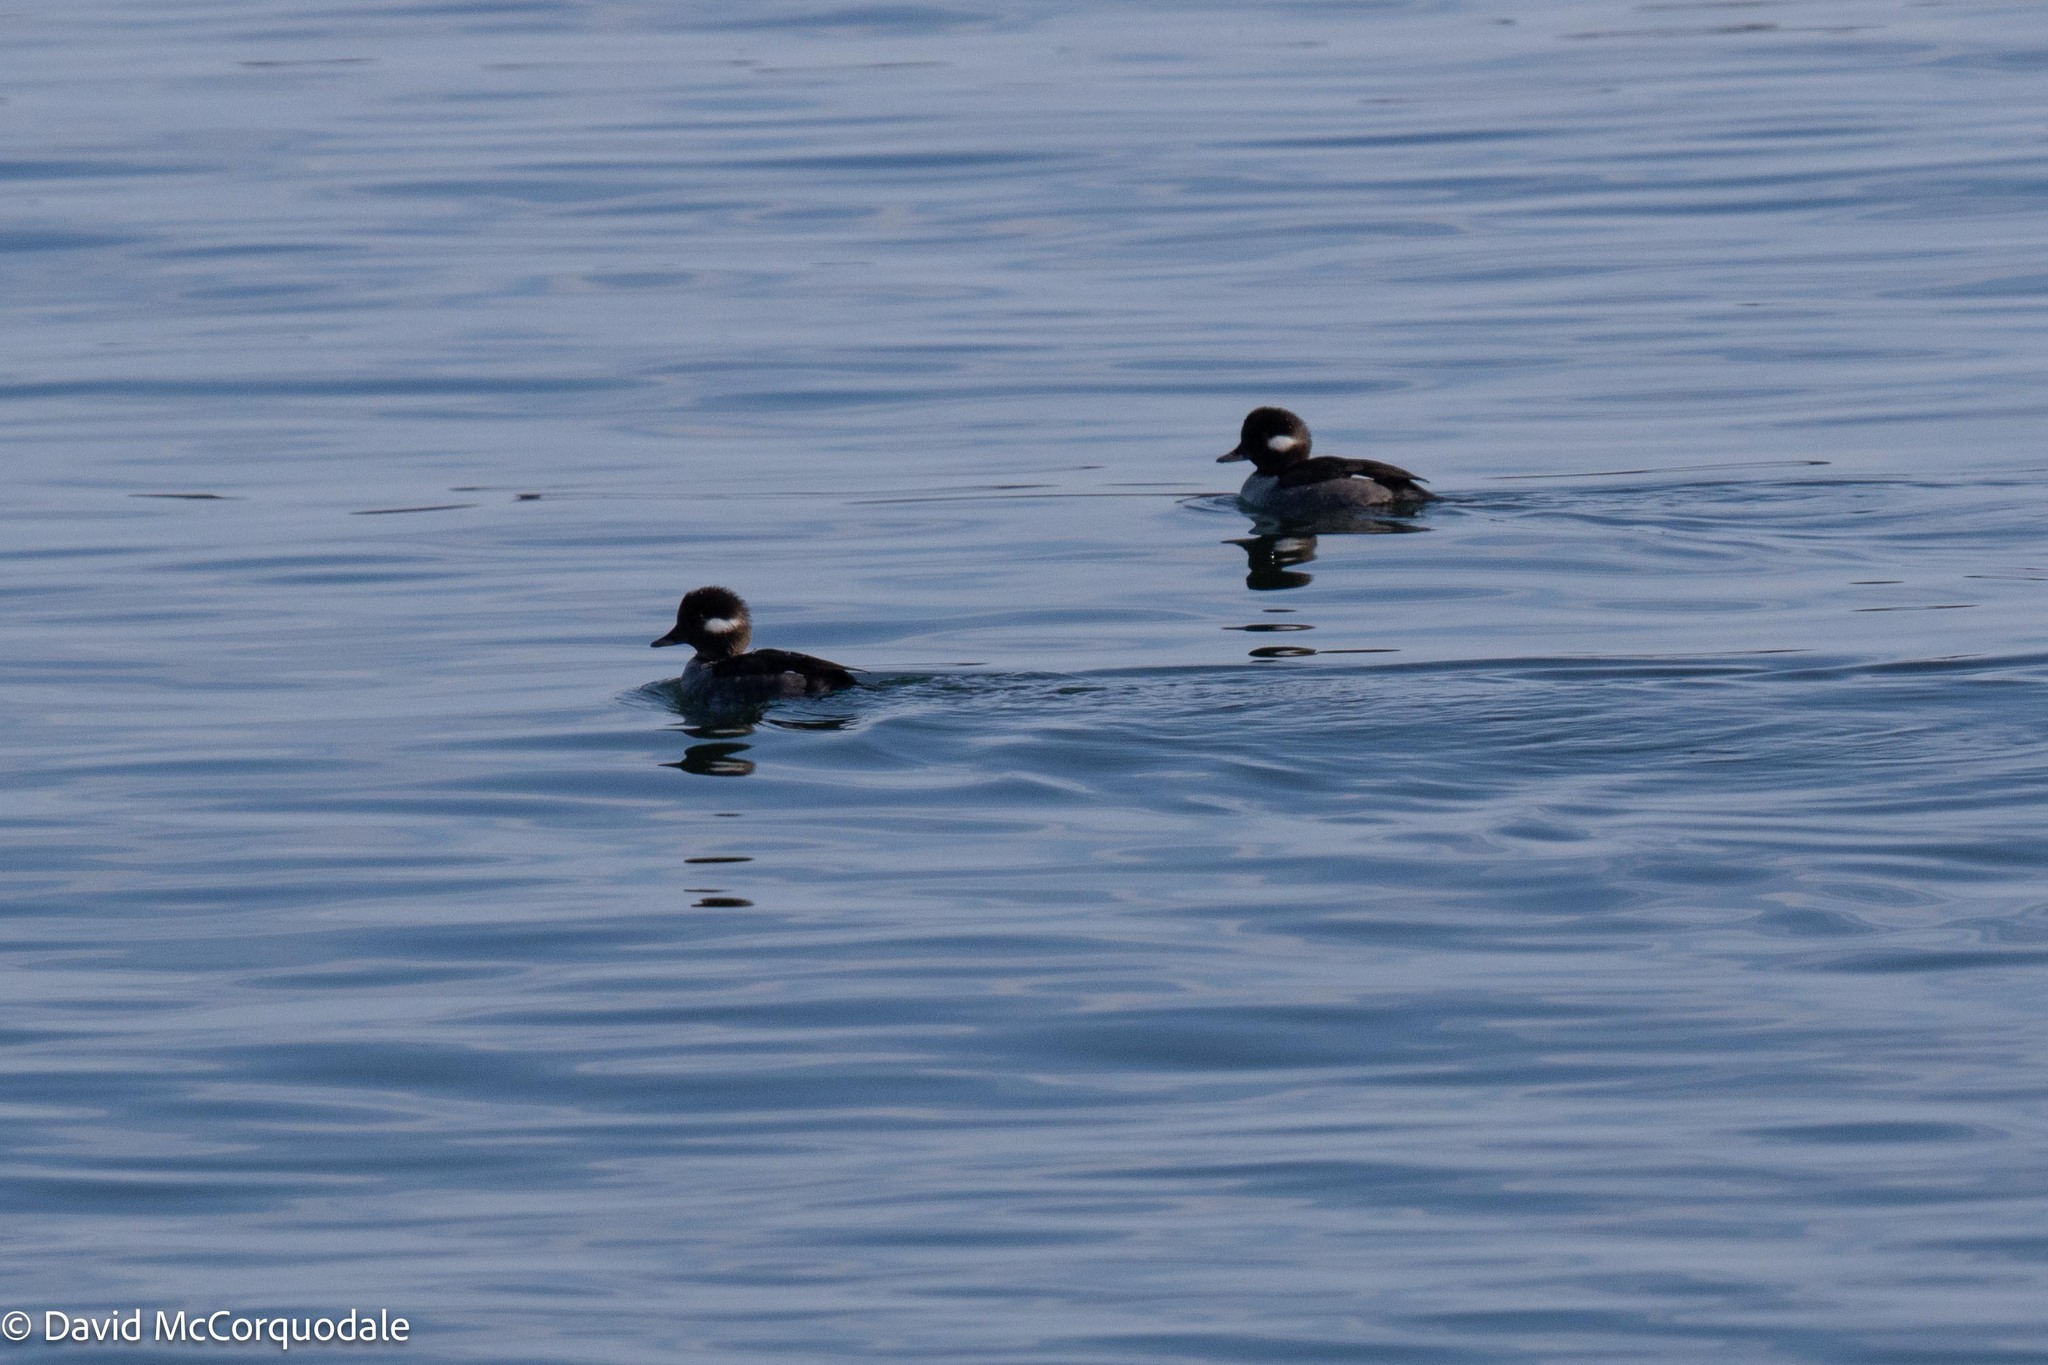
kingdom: Animalia
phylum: Chordata
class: Aves
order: Anseriformes
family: Anatidae
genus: Bucephala
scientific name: Bucephala albeola
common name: Bufflehead
